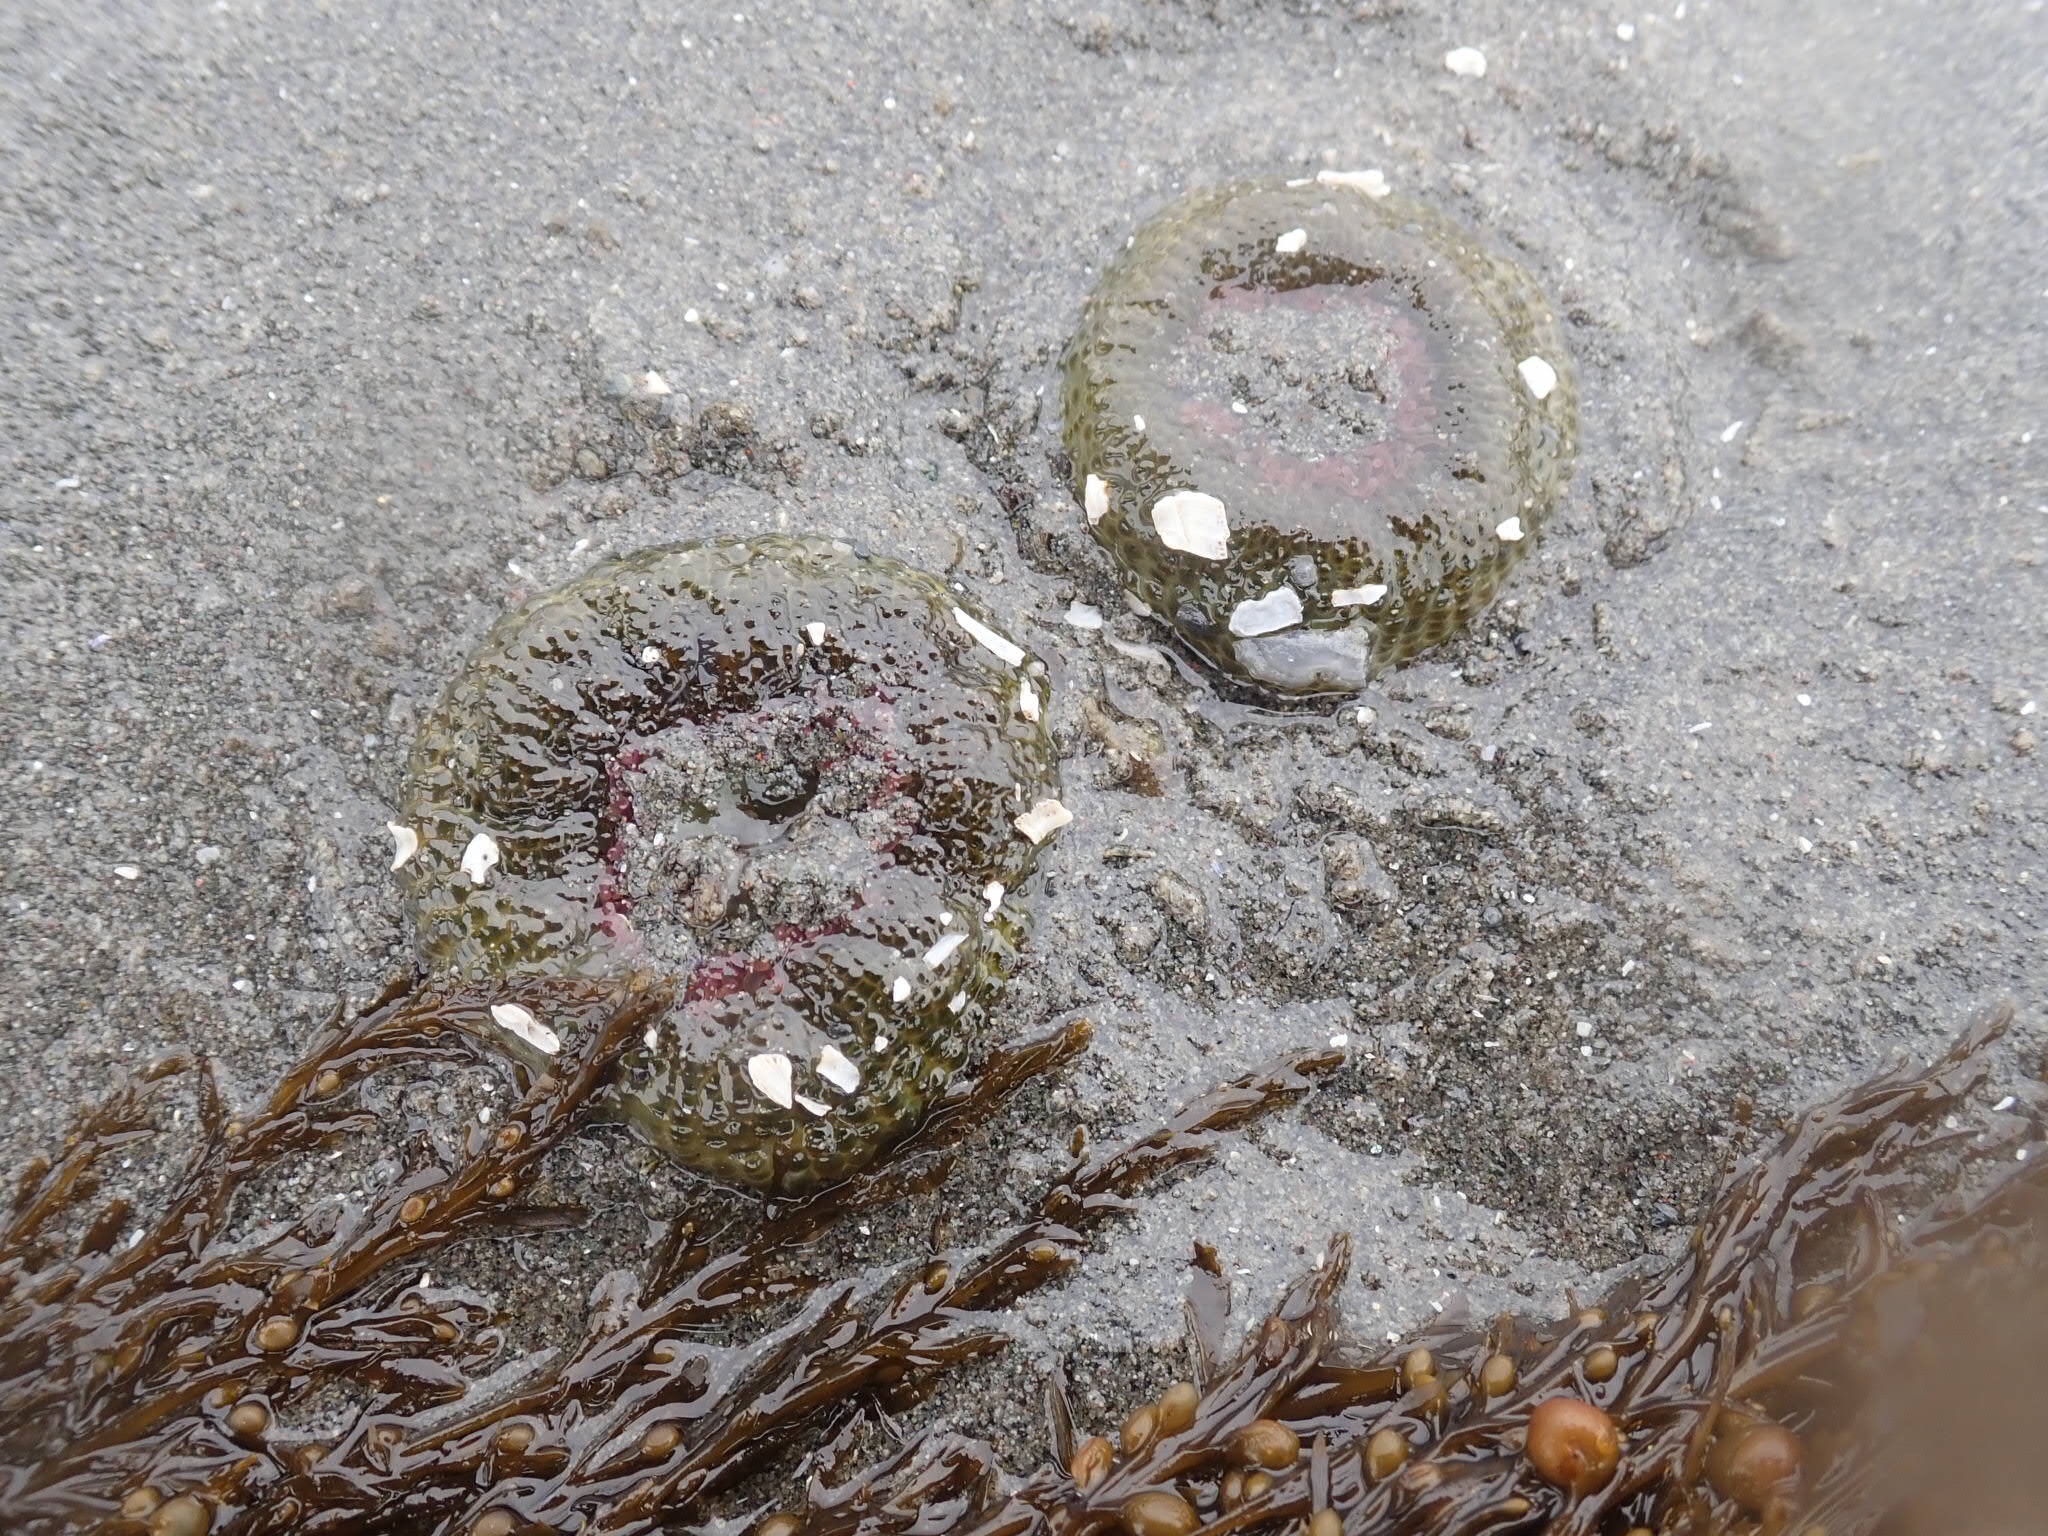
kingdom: Animalia
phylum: Cnidaria
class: Anthozoa
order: Actiniaria
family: Actiniidae
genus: Anthopleura
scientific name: Anthopleura elegantissima
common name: Clonal anemone
